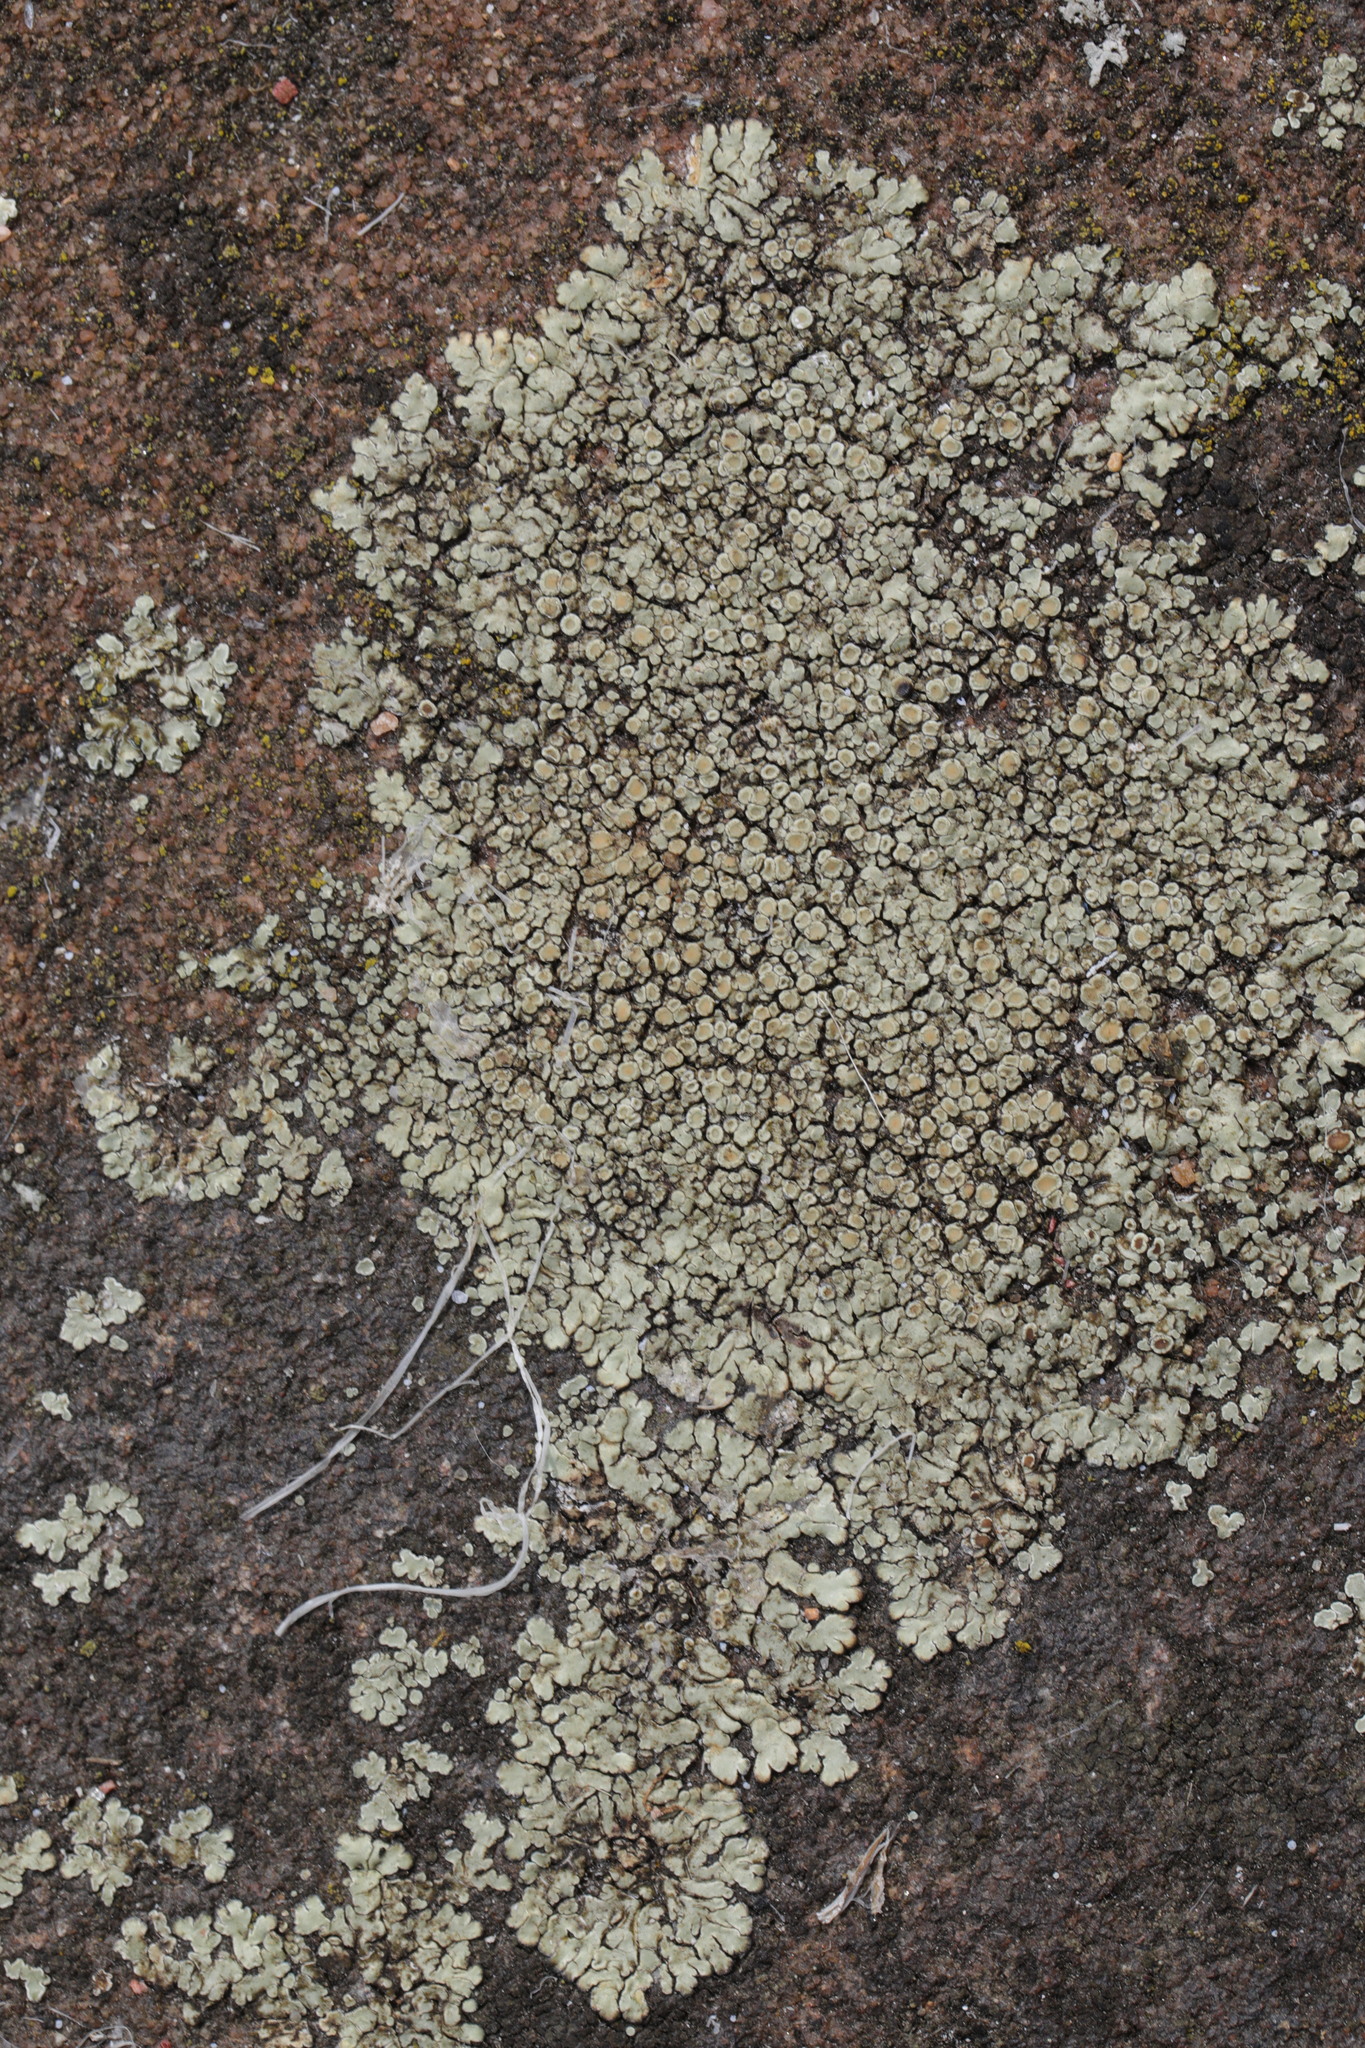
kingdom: Fungi
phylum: Ascomycota
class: Lecanoromycetes
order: Lecanorales
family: Lecanoraceae
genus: Protoparmeliopsis
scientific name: Protoparmeliopsis muralis
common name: Stonewall rim lichen
